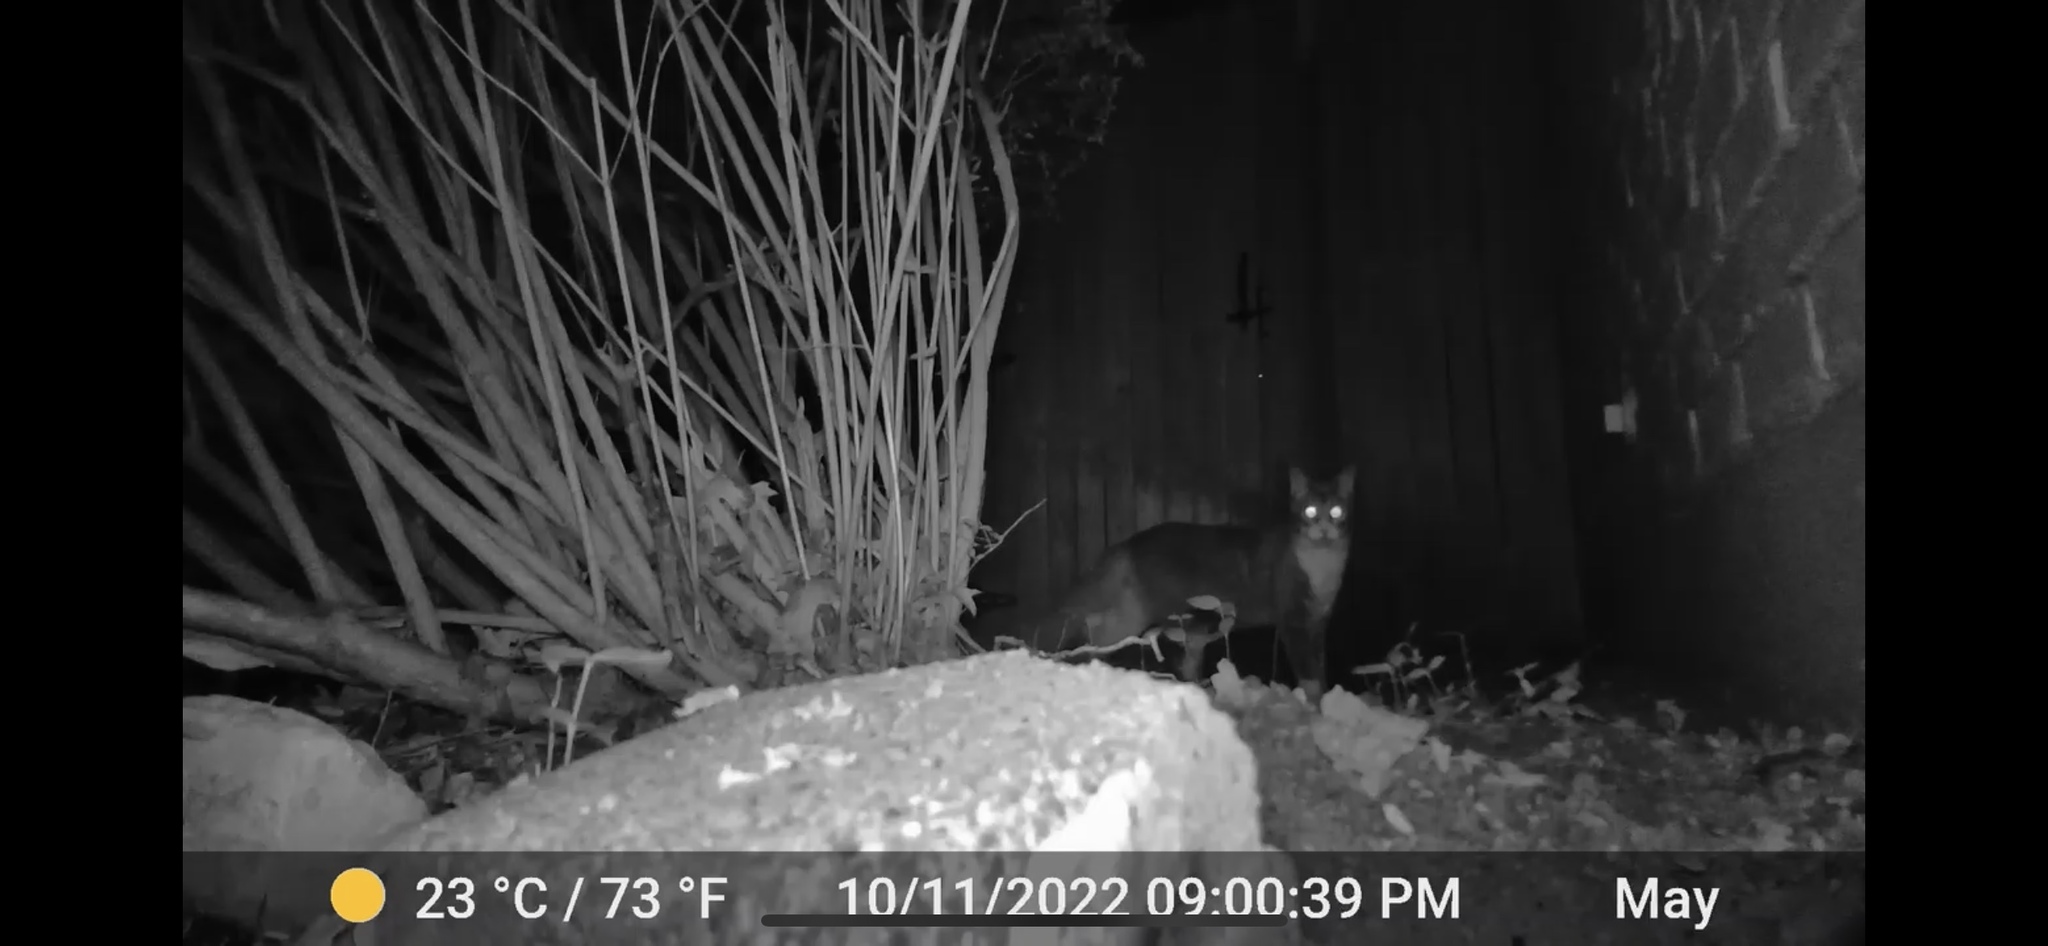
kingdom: Animalia
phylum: Chordata
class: Mammalia
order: Carnivora
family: Felidae
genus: Felis
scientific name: Felis catus
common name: Domestic cat
